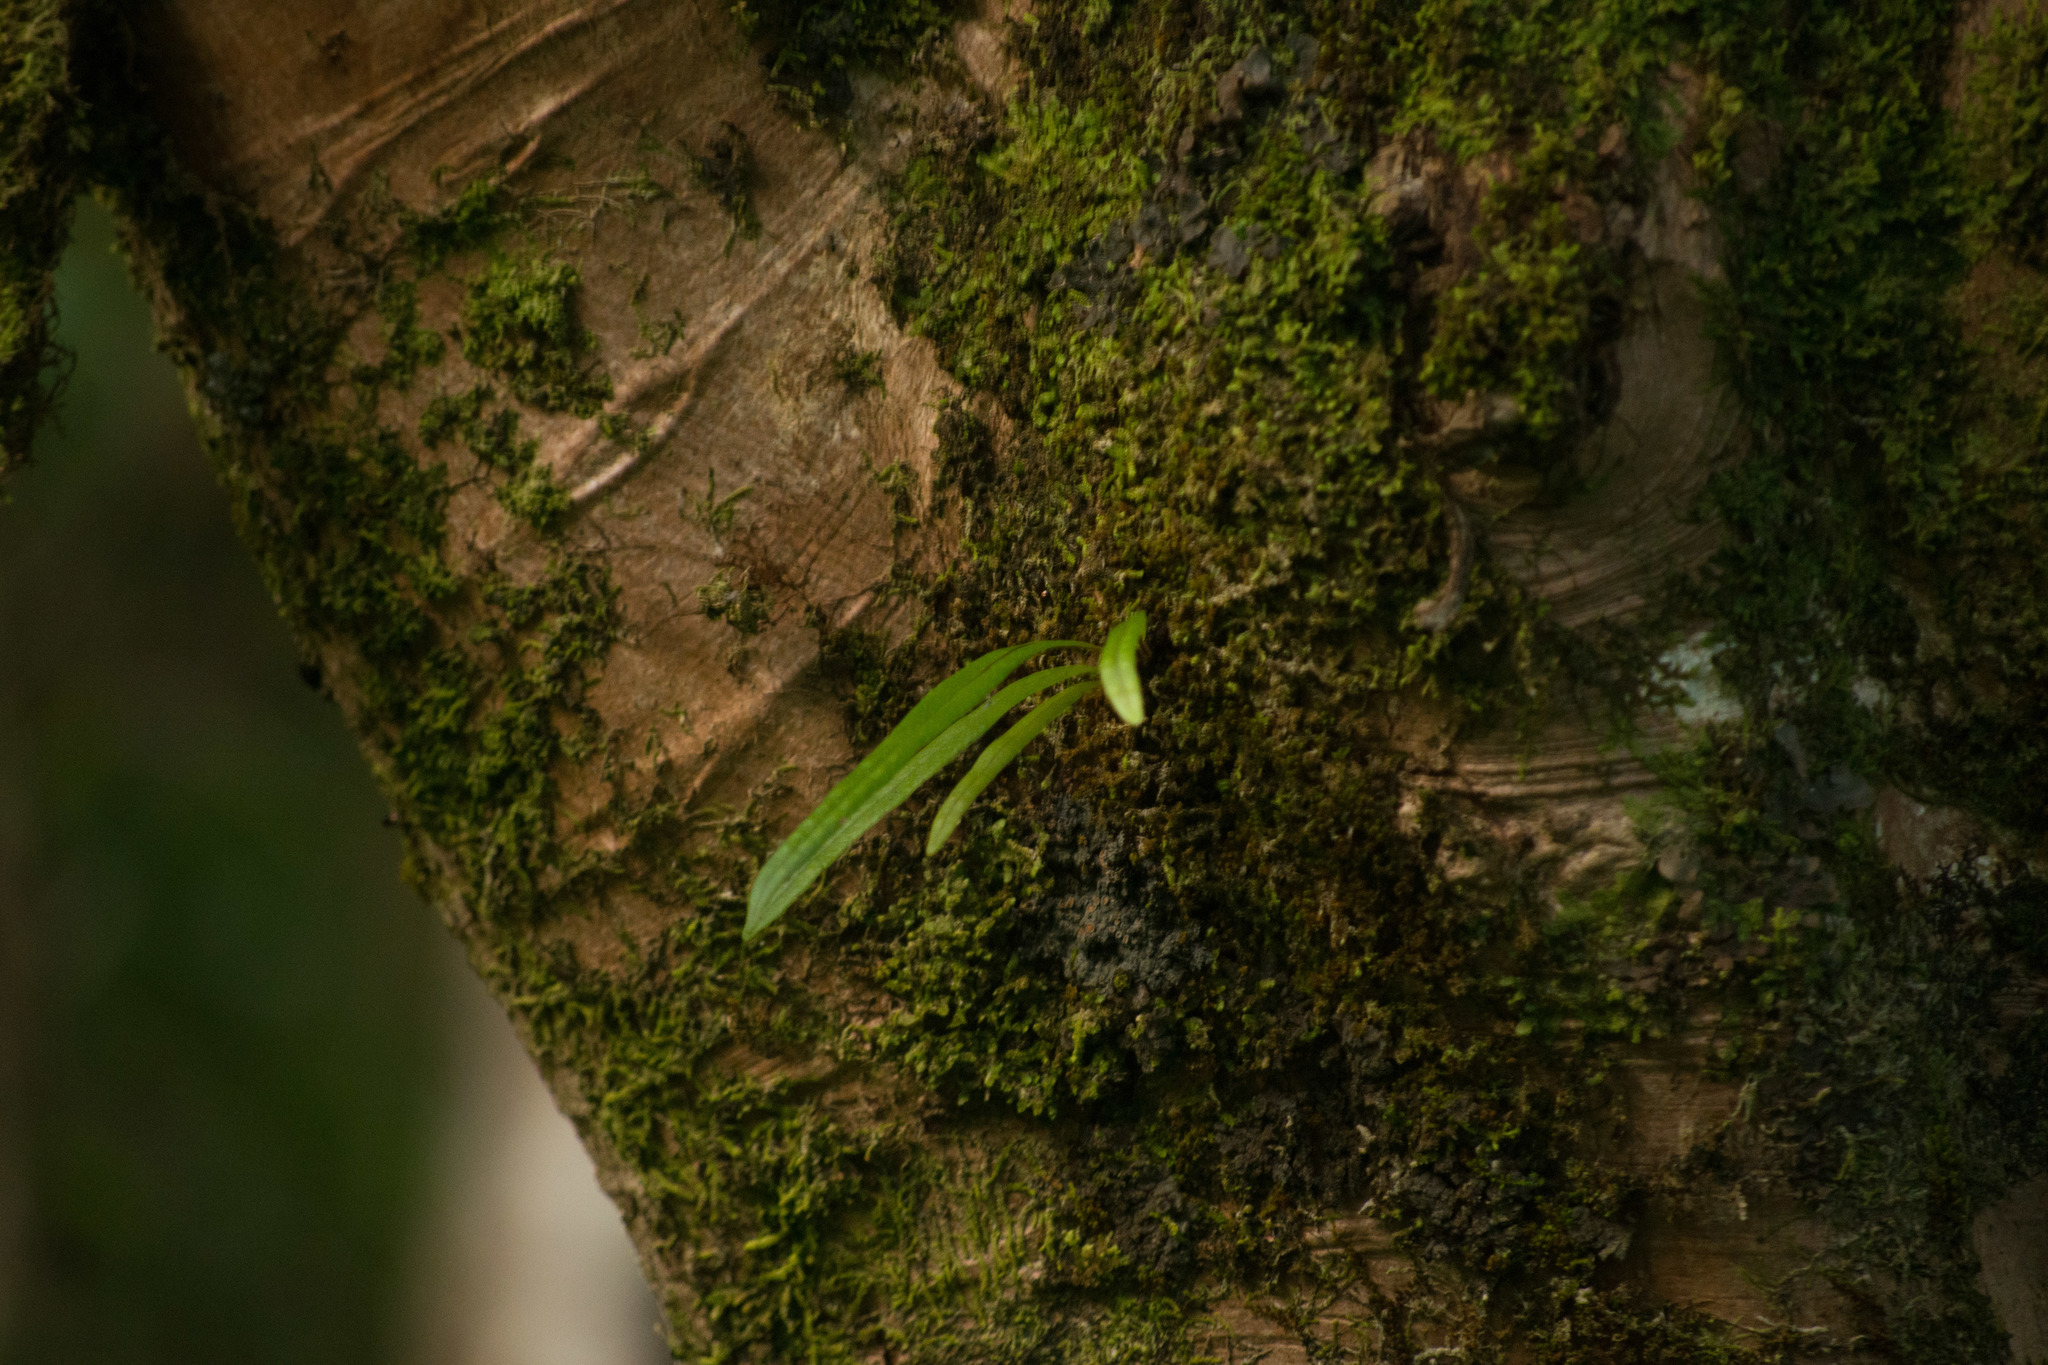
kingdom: Plantae
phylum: Tracheophyta
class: Polypodiopsida
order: Polypodiales
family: Polypodiaceae
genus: Lepisorus
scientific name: Lepisorus thunbergianus
